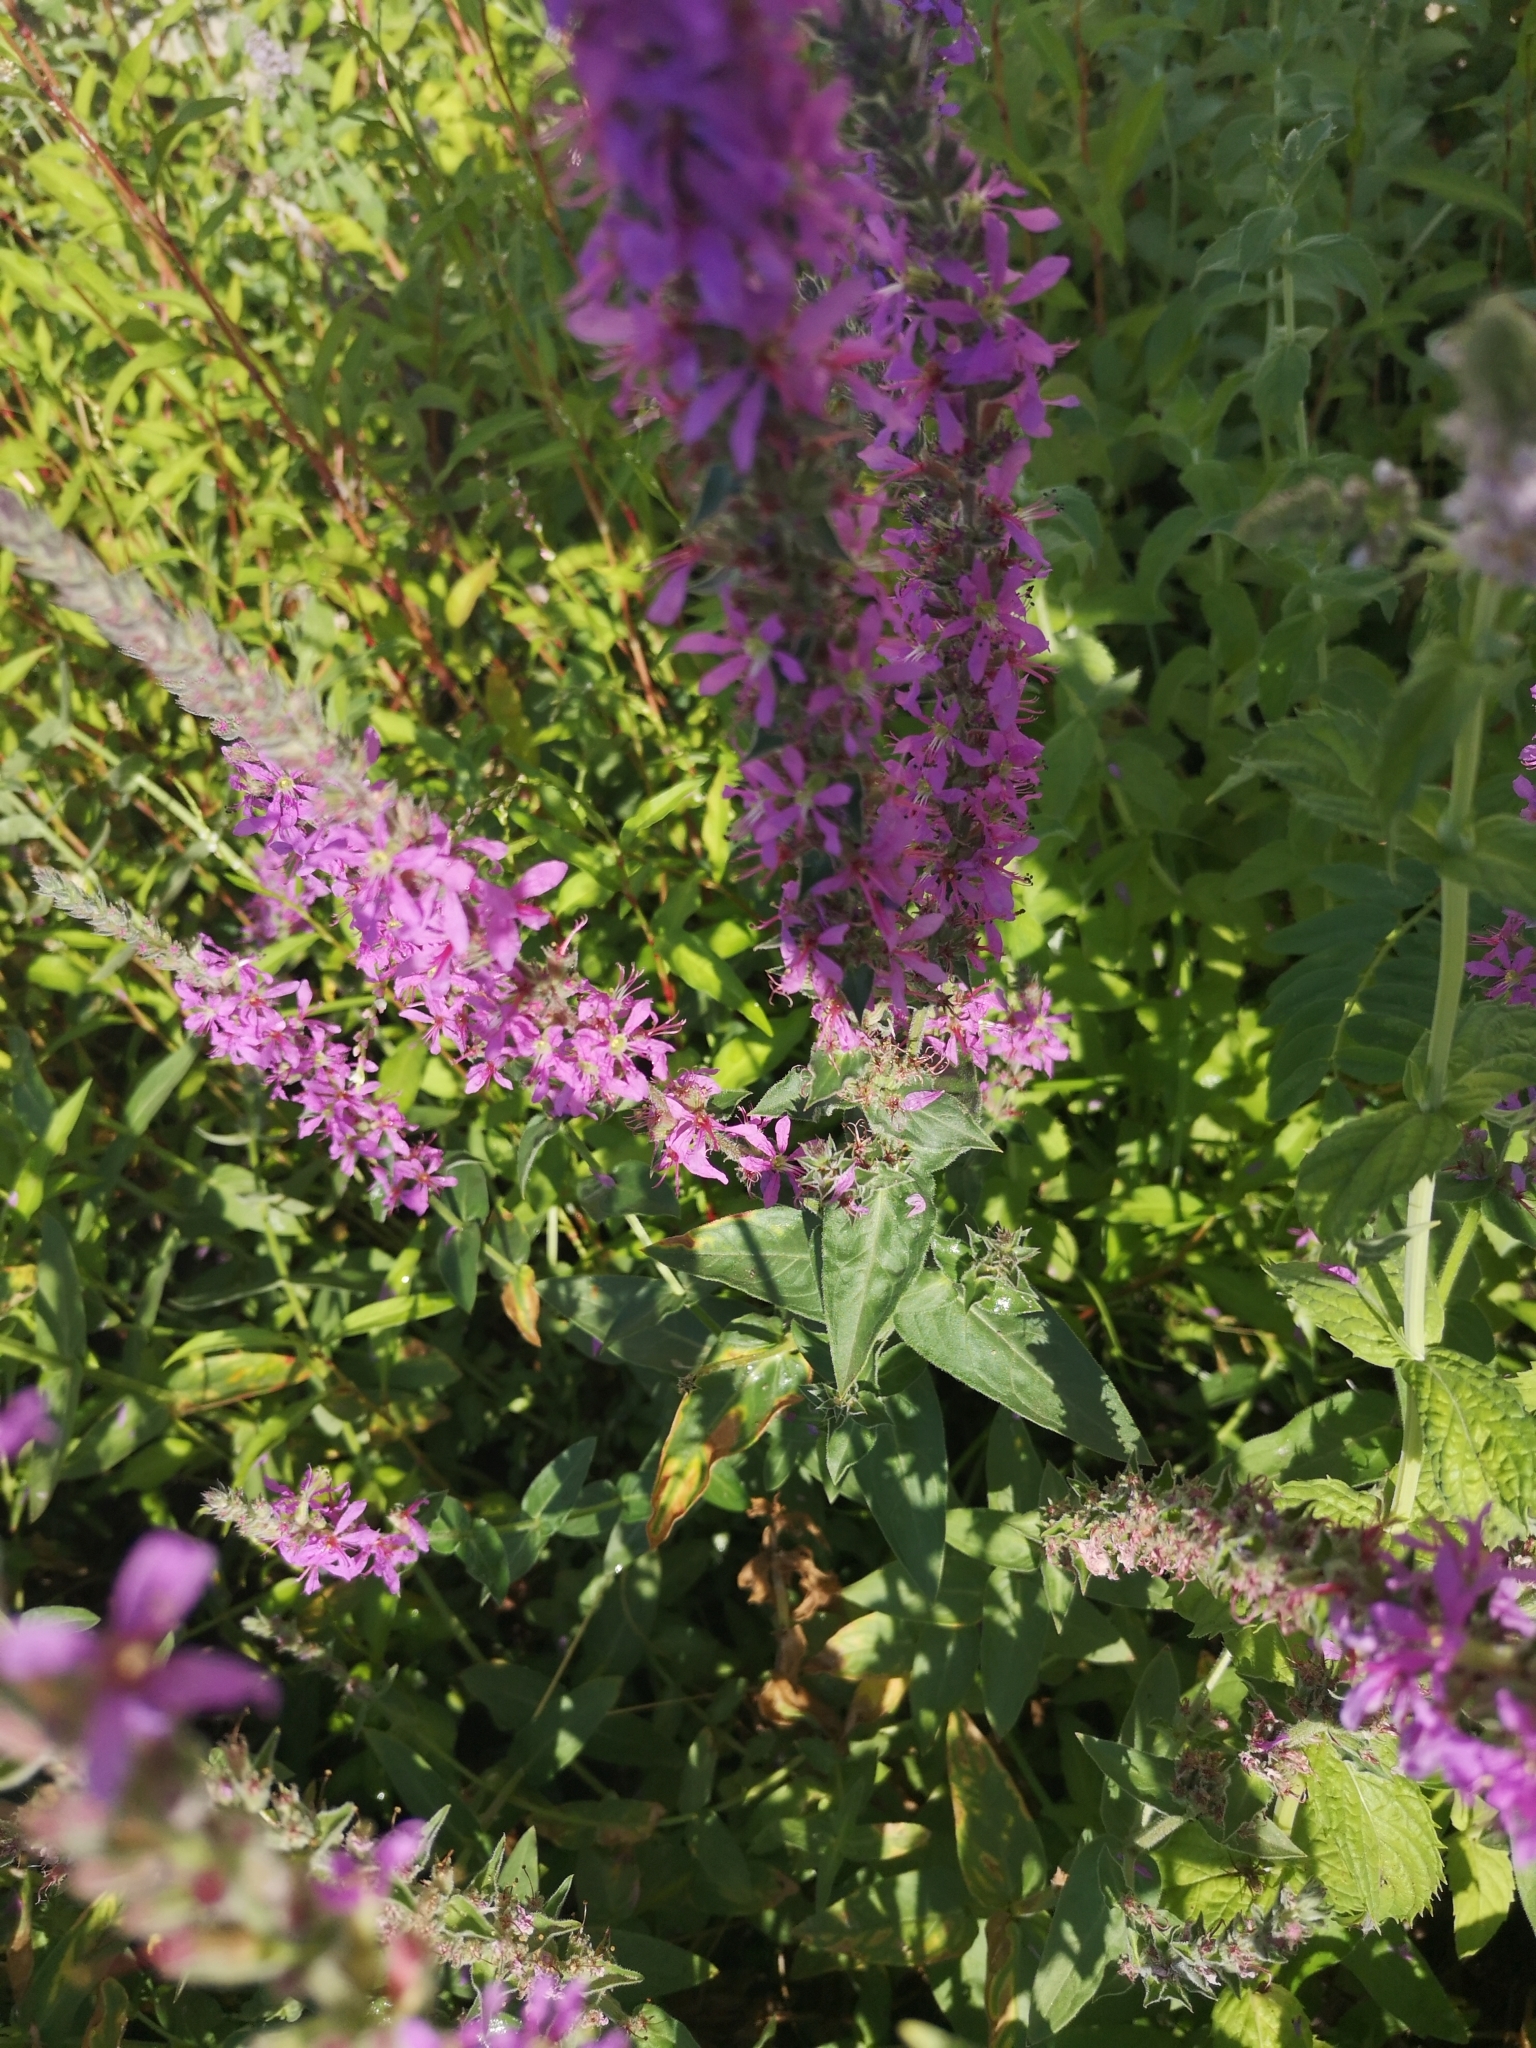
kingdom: Plantae
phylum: Tracheophyta
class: Magnoliopsida
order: Myrtales
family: Lythraceae
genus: Lythrum
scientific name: Lythrum salicaria
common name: Purple loosestrife
